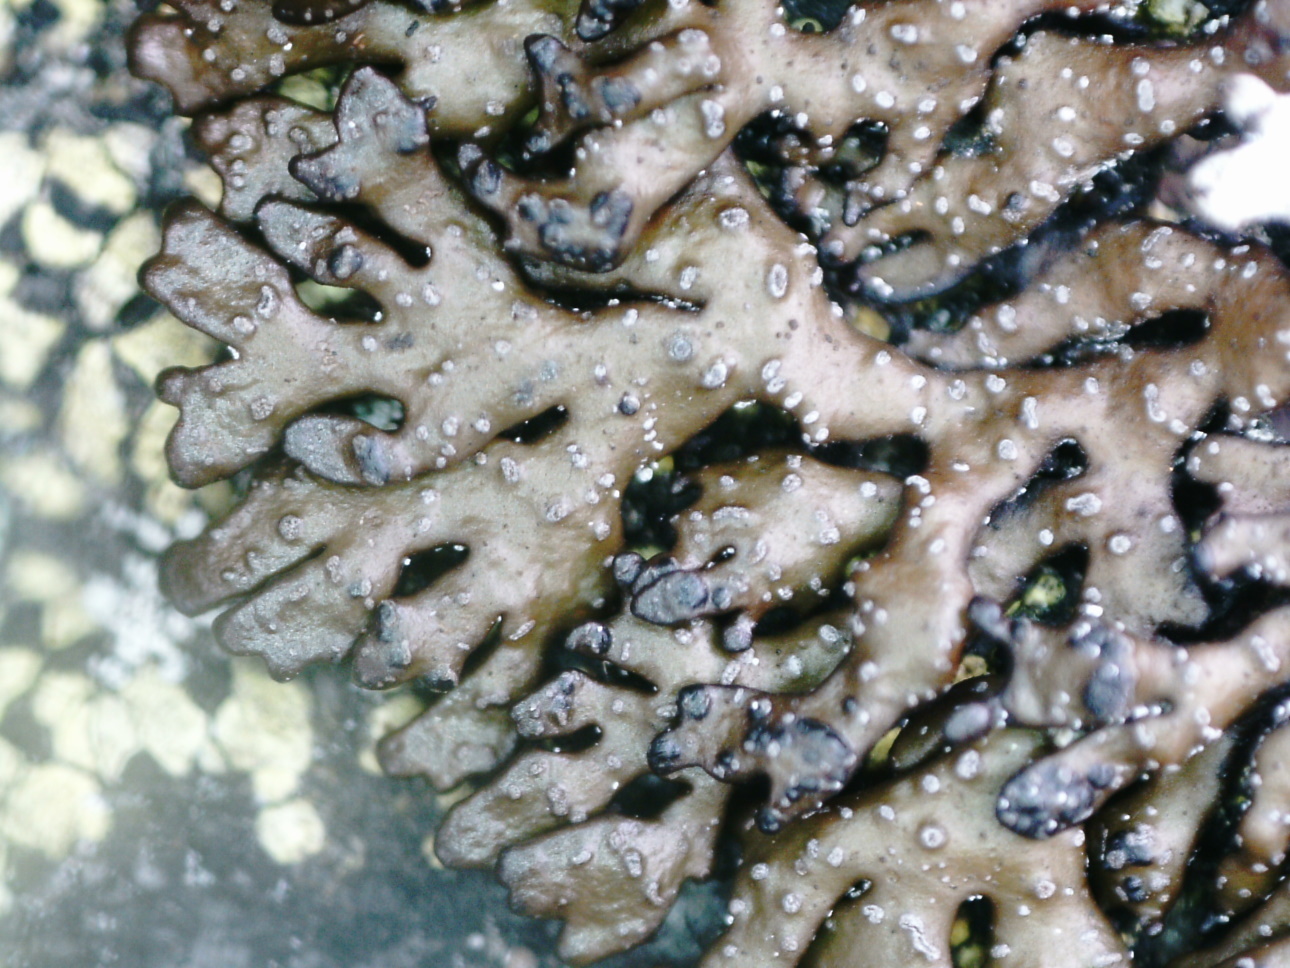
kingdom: Fungi
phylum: Ascomycota
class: Lecanoromycetes
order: Lecanorales
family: Parmeliaceae
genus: Melanelia
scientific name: Melanelia stygia
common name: Alpine camouflage lichen
